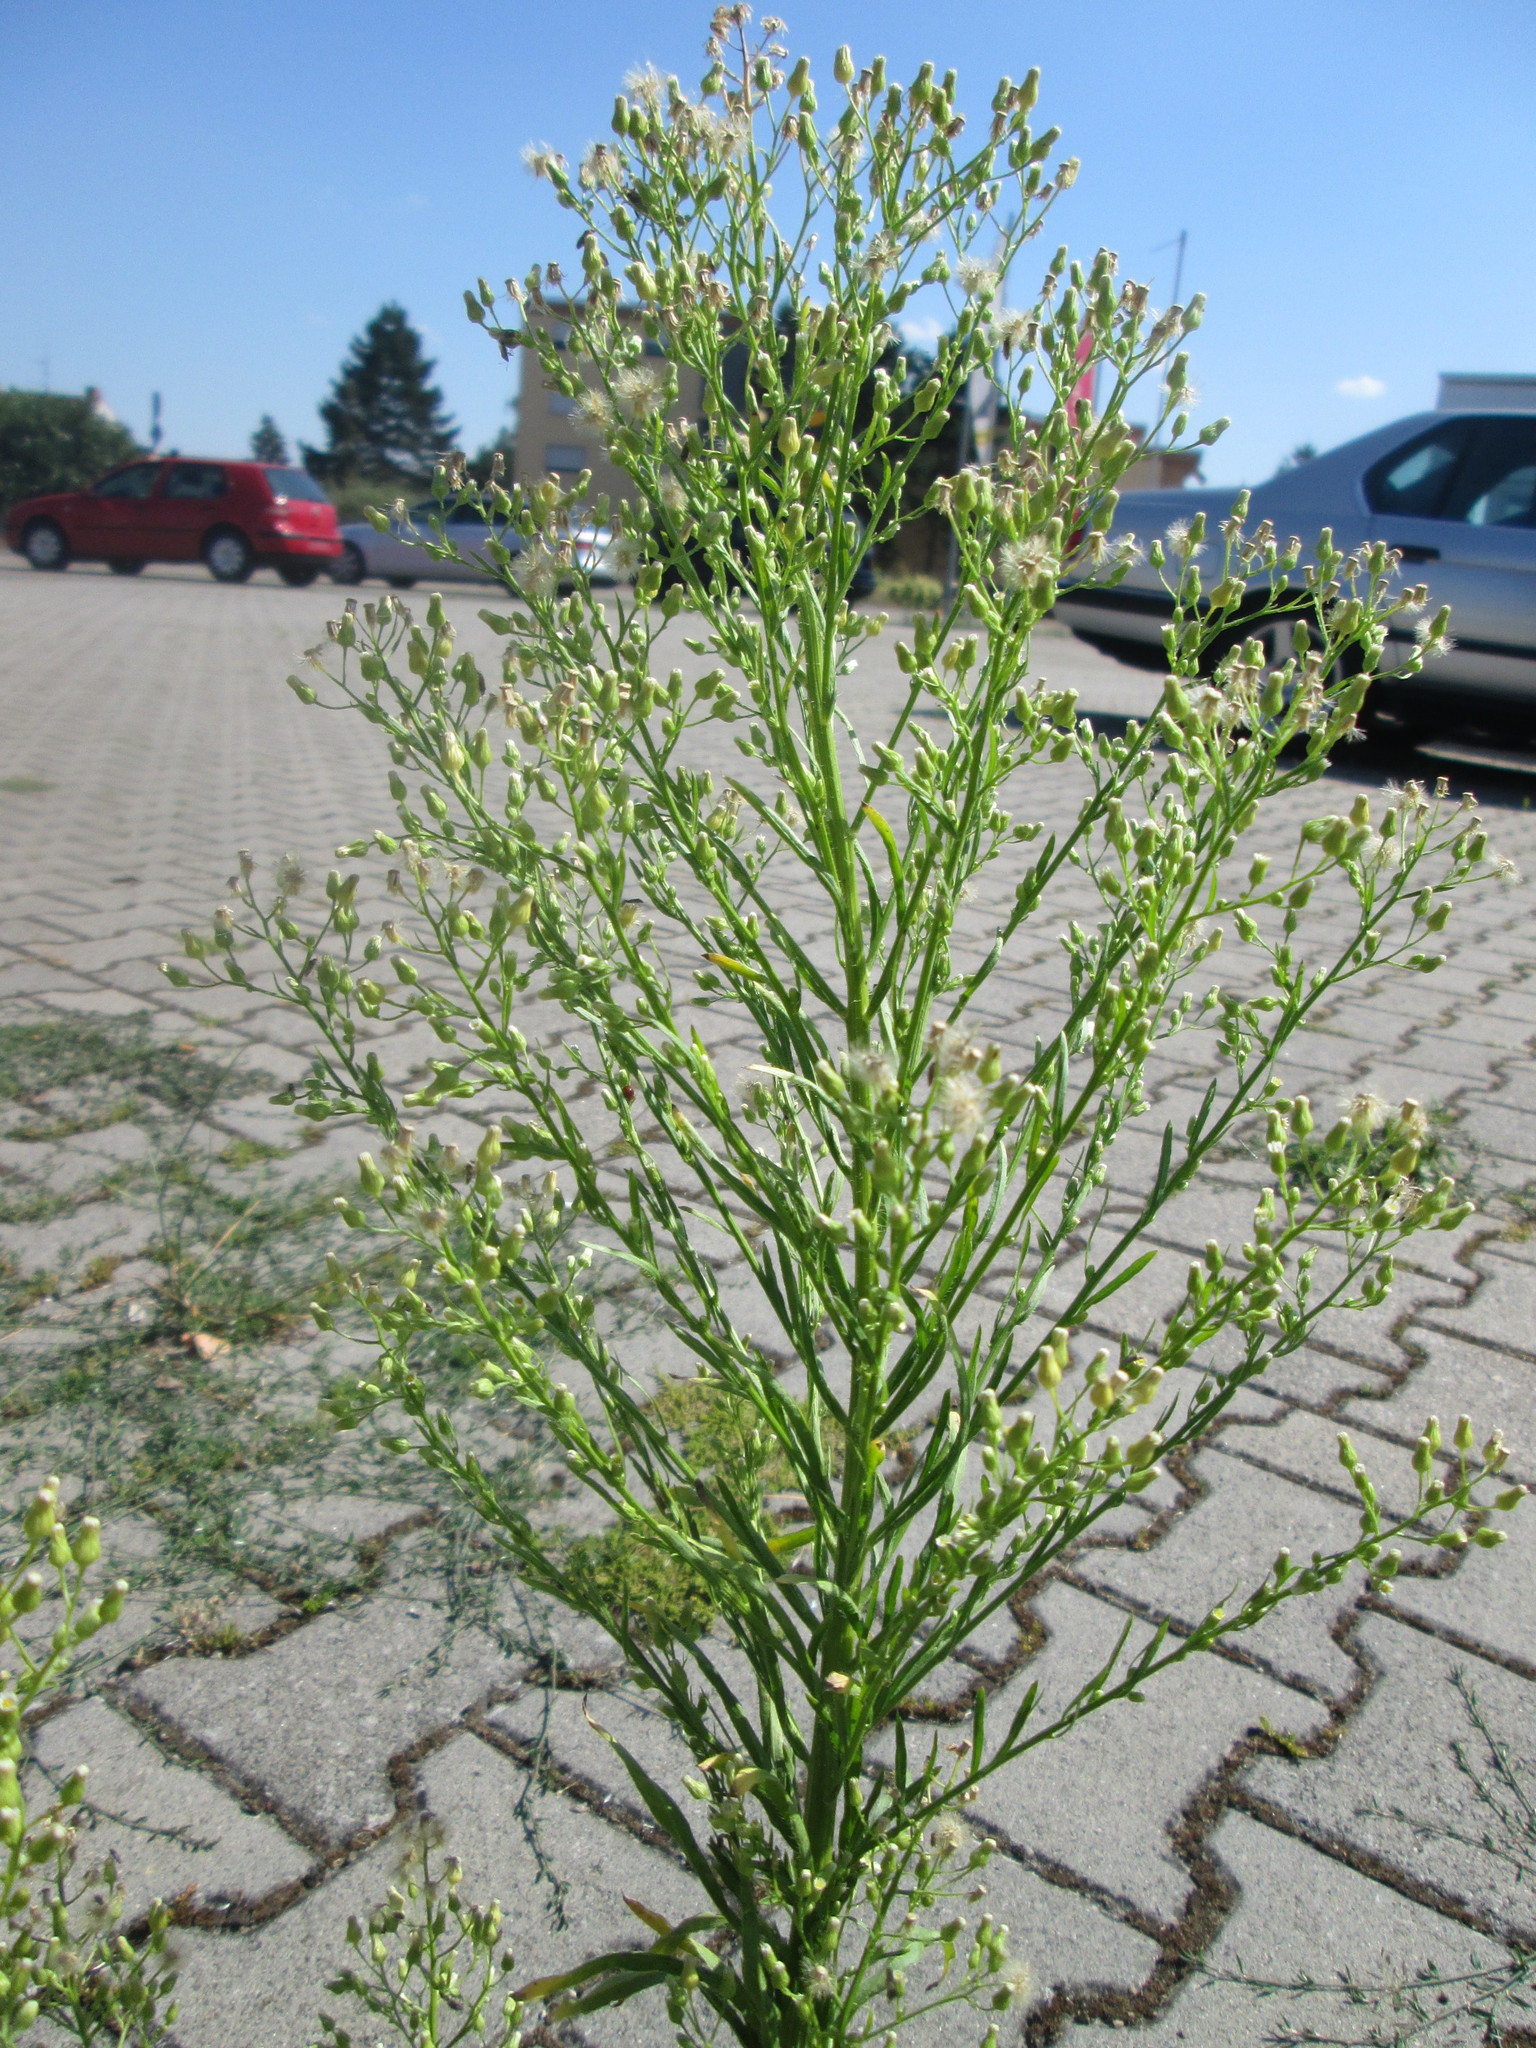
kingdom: Plantae
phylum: Tracheophyta
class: Magnoliopsida
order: Asterales
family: Asteraceae
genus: Erigeron
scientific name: Erigeron canadensis
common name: Canadian fleabane
